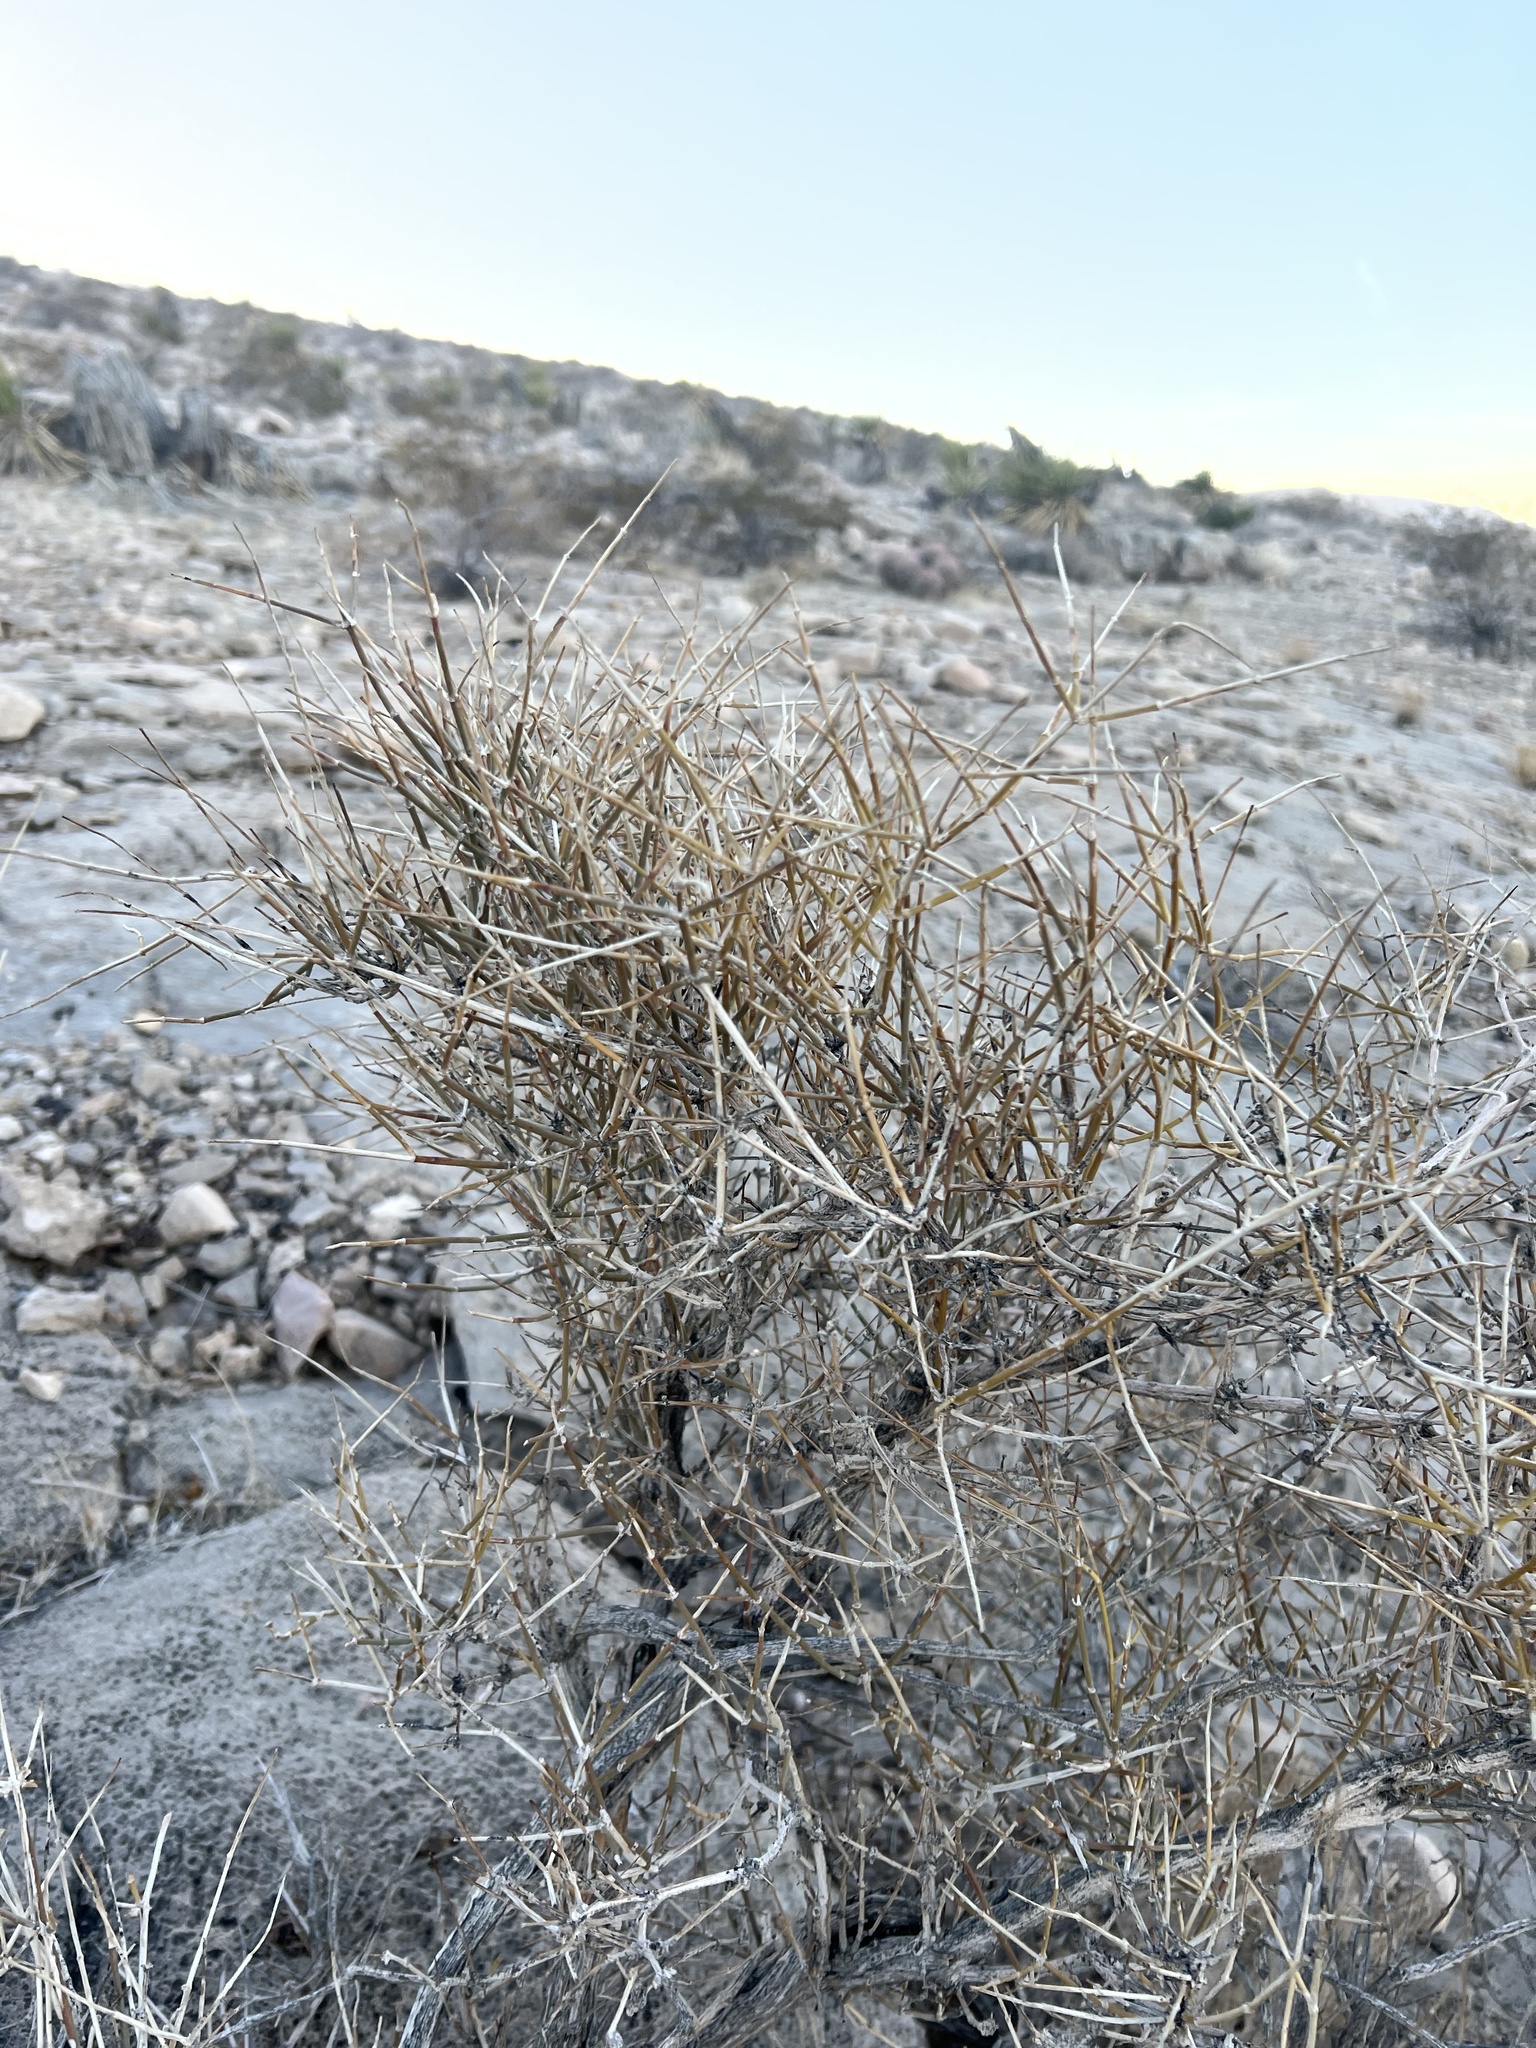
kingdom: Plantae
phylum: Tracheophyta
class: Gnetopsida
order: Ephedrales
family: Ephedraceae
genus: Ephedra
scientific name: Ephedra nevadensis
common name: Gray ephedra
